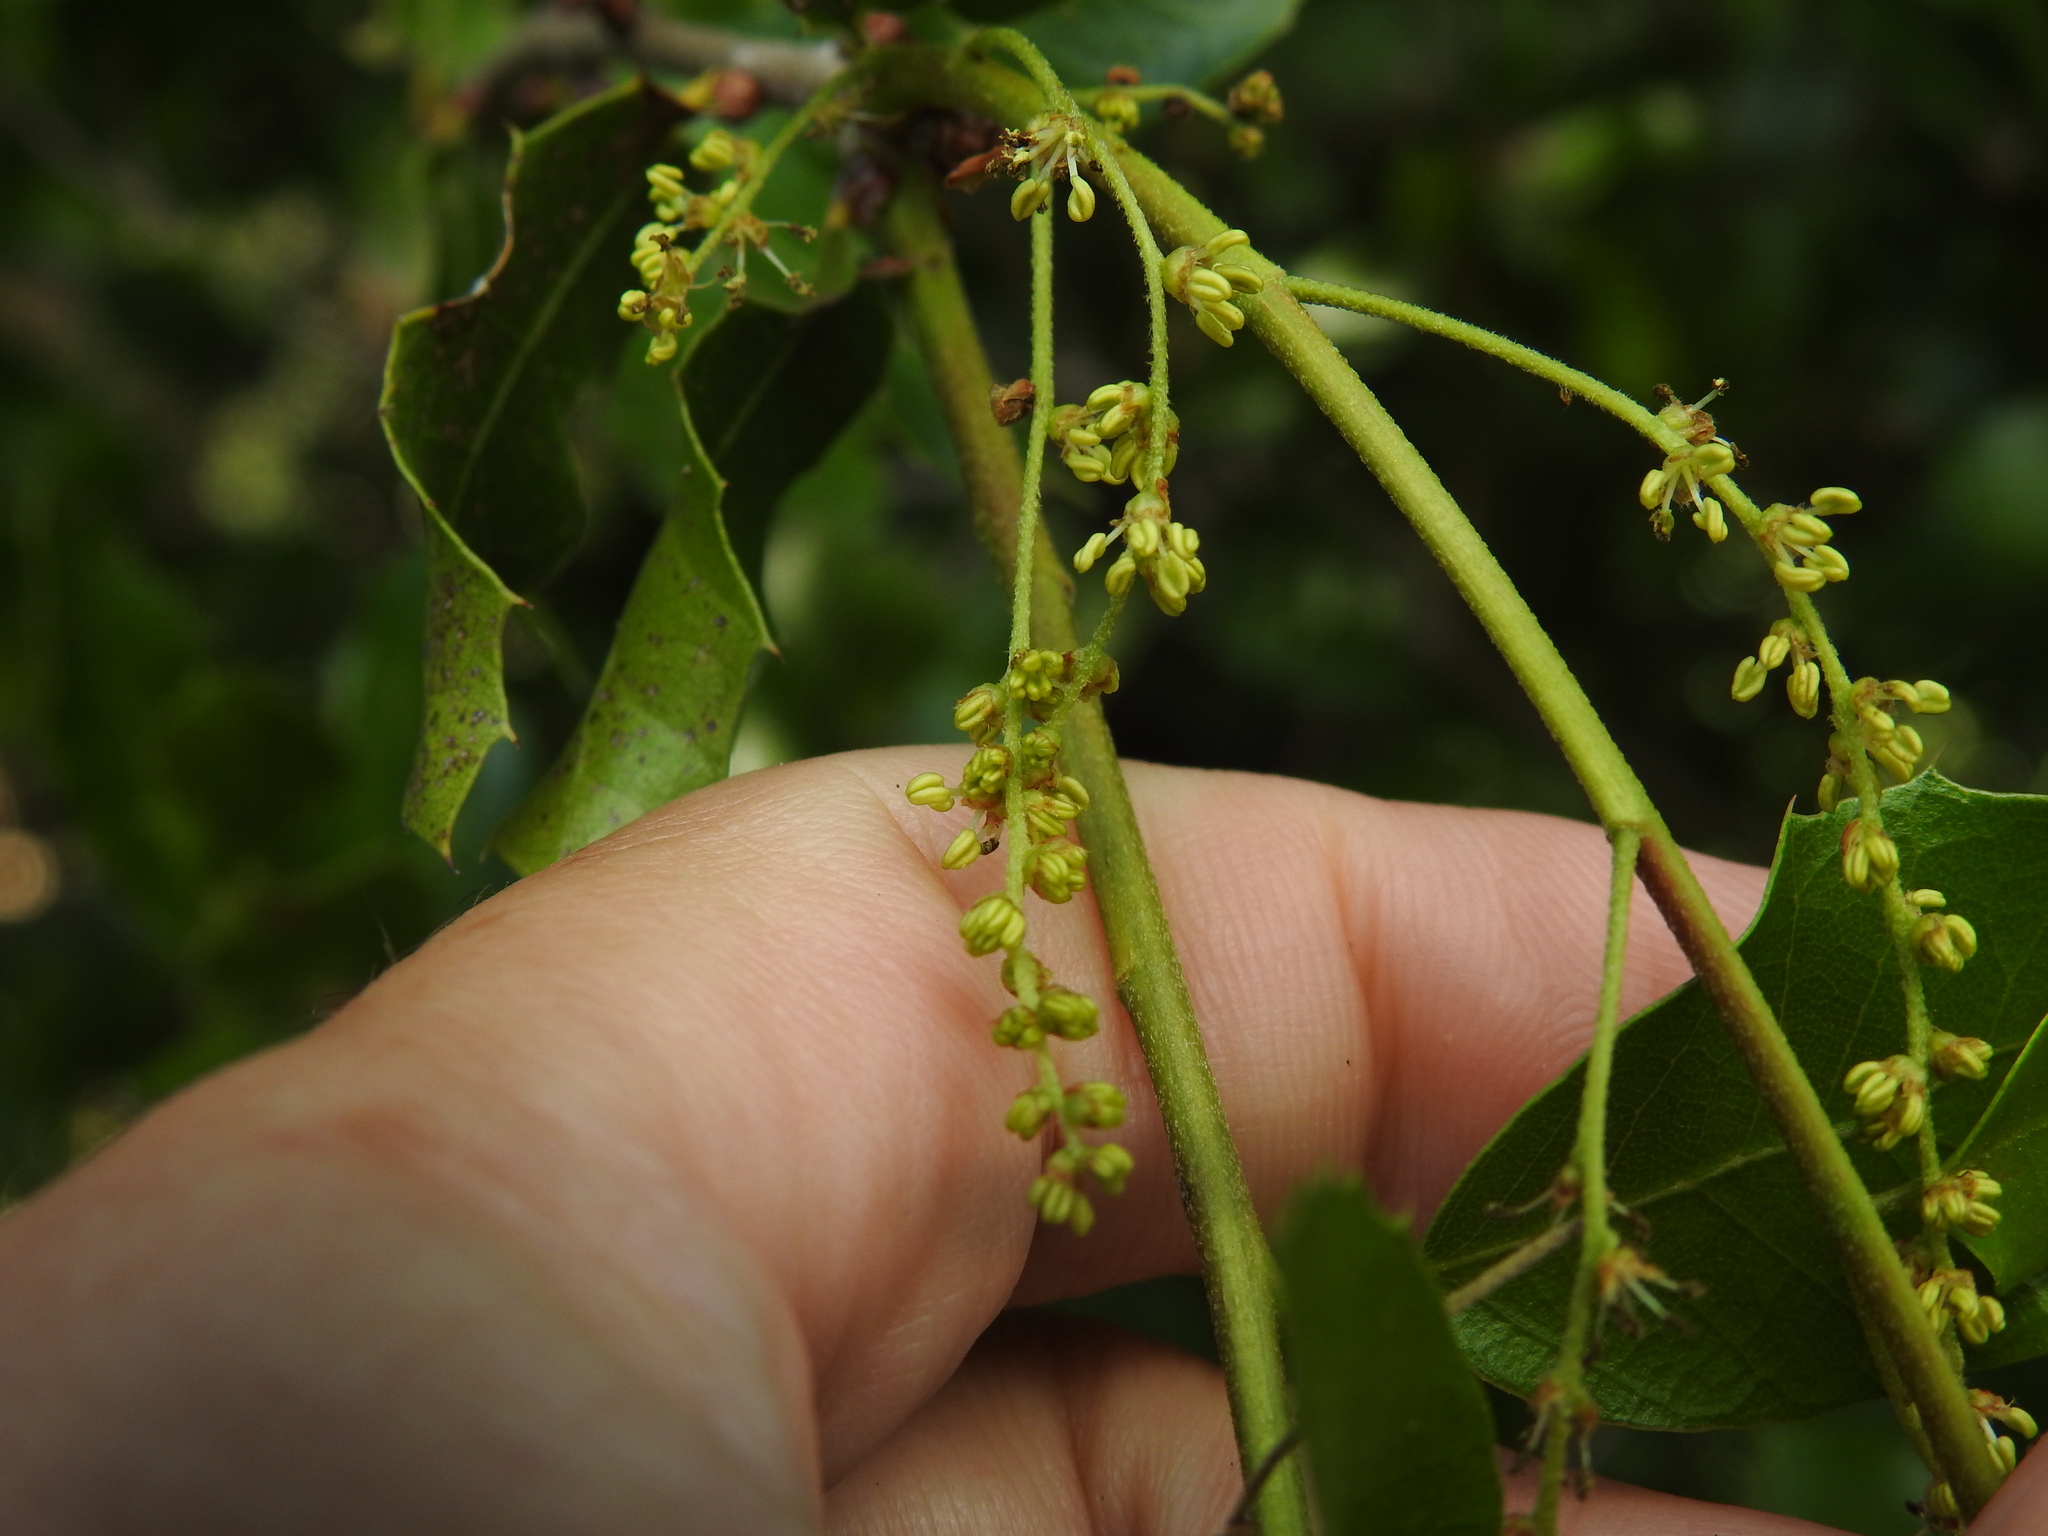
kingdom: Plantae
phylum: Tracheophyta
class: Magnoliopsida
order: Fagales
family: Fagaceae
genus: Quercus
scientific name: Quercus pseudococcifera
